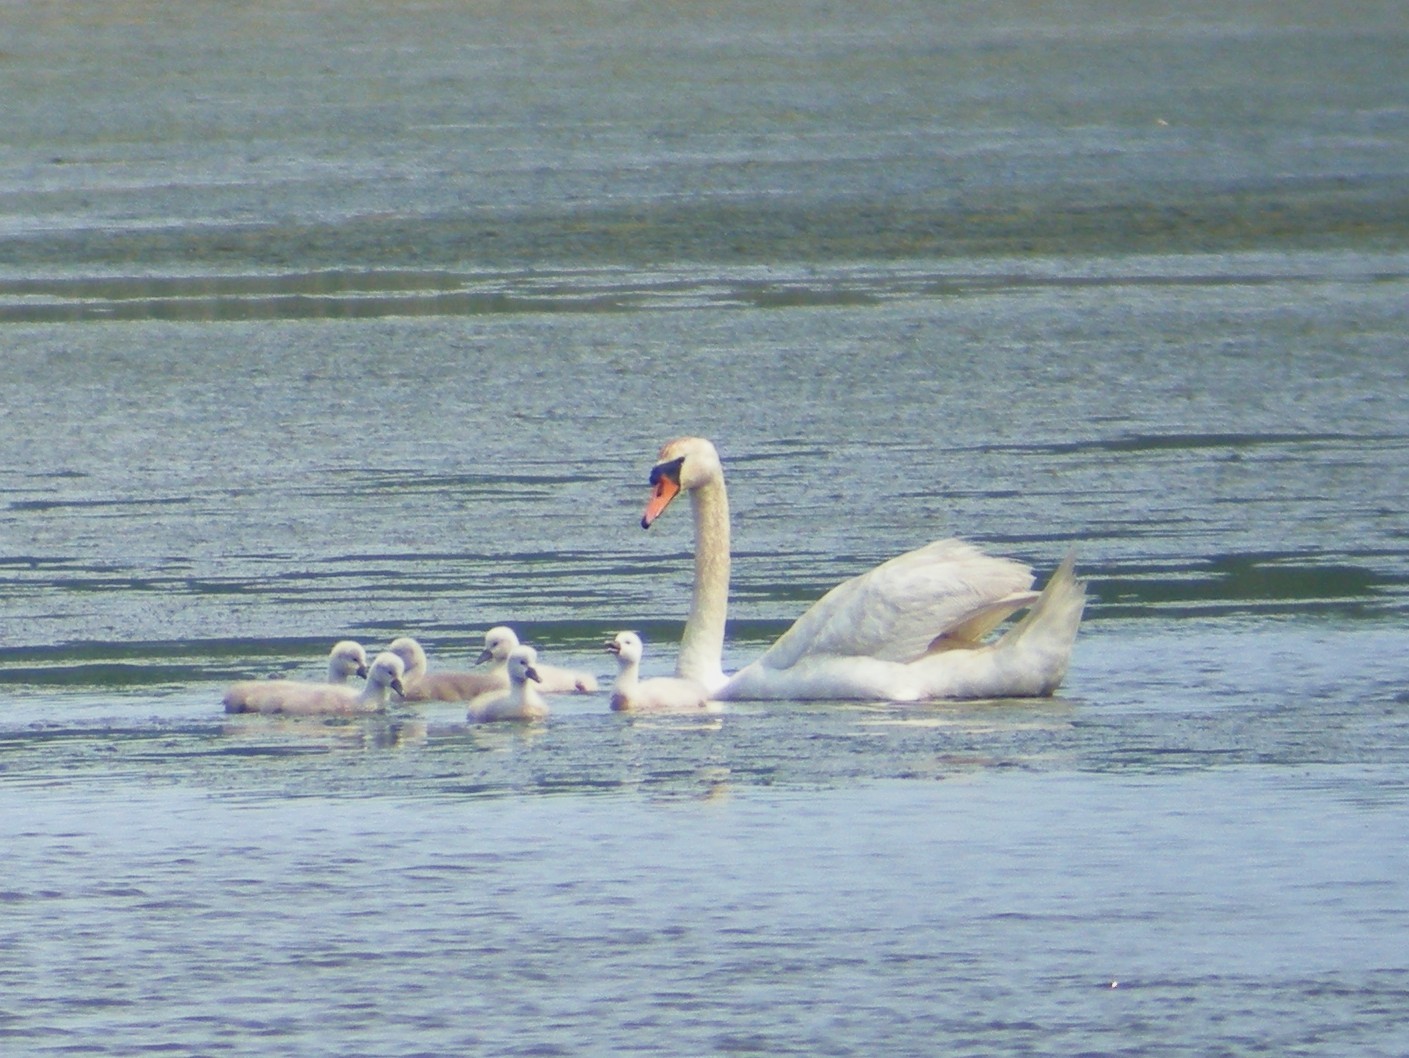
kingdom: Animalia
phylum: Chordata
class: Aves
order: Anseriformes
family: Anatidae
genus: Cygnus
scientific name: Cygnus olor
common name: Mute swan
